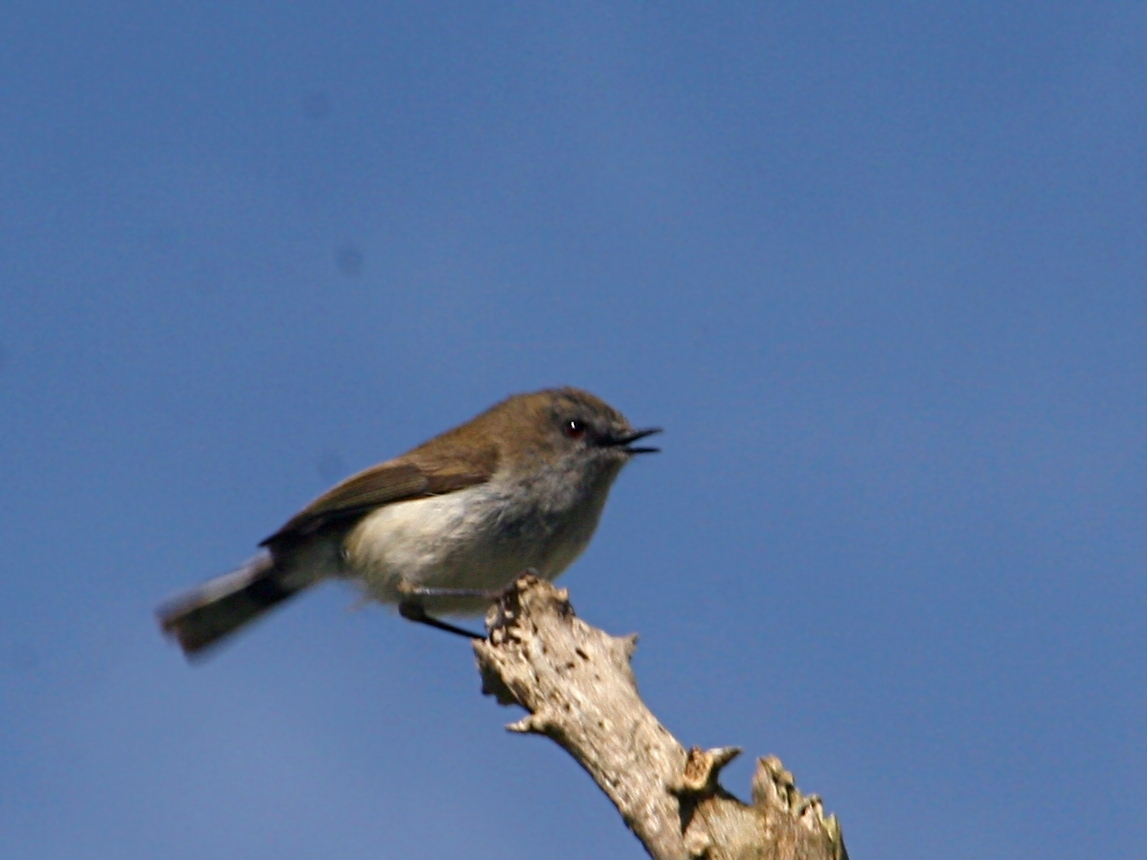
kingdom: Animalia
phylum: Chordata
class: Aves
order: Passeriformes
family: Acanthizidae
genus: Gerygone
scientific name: Gerygone igata
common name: Grey gerygone
